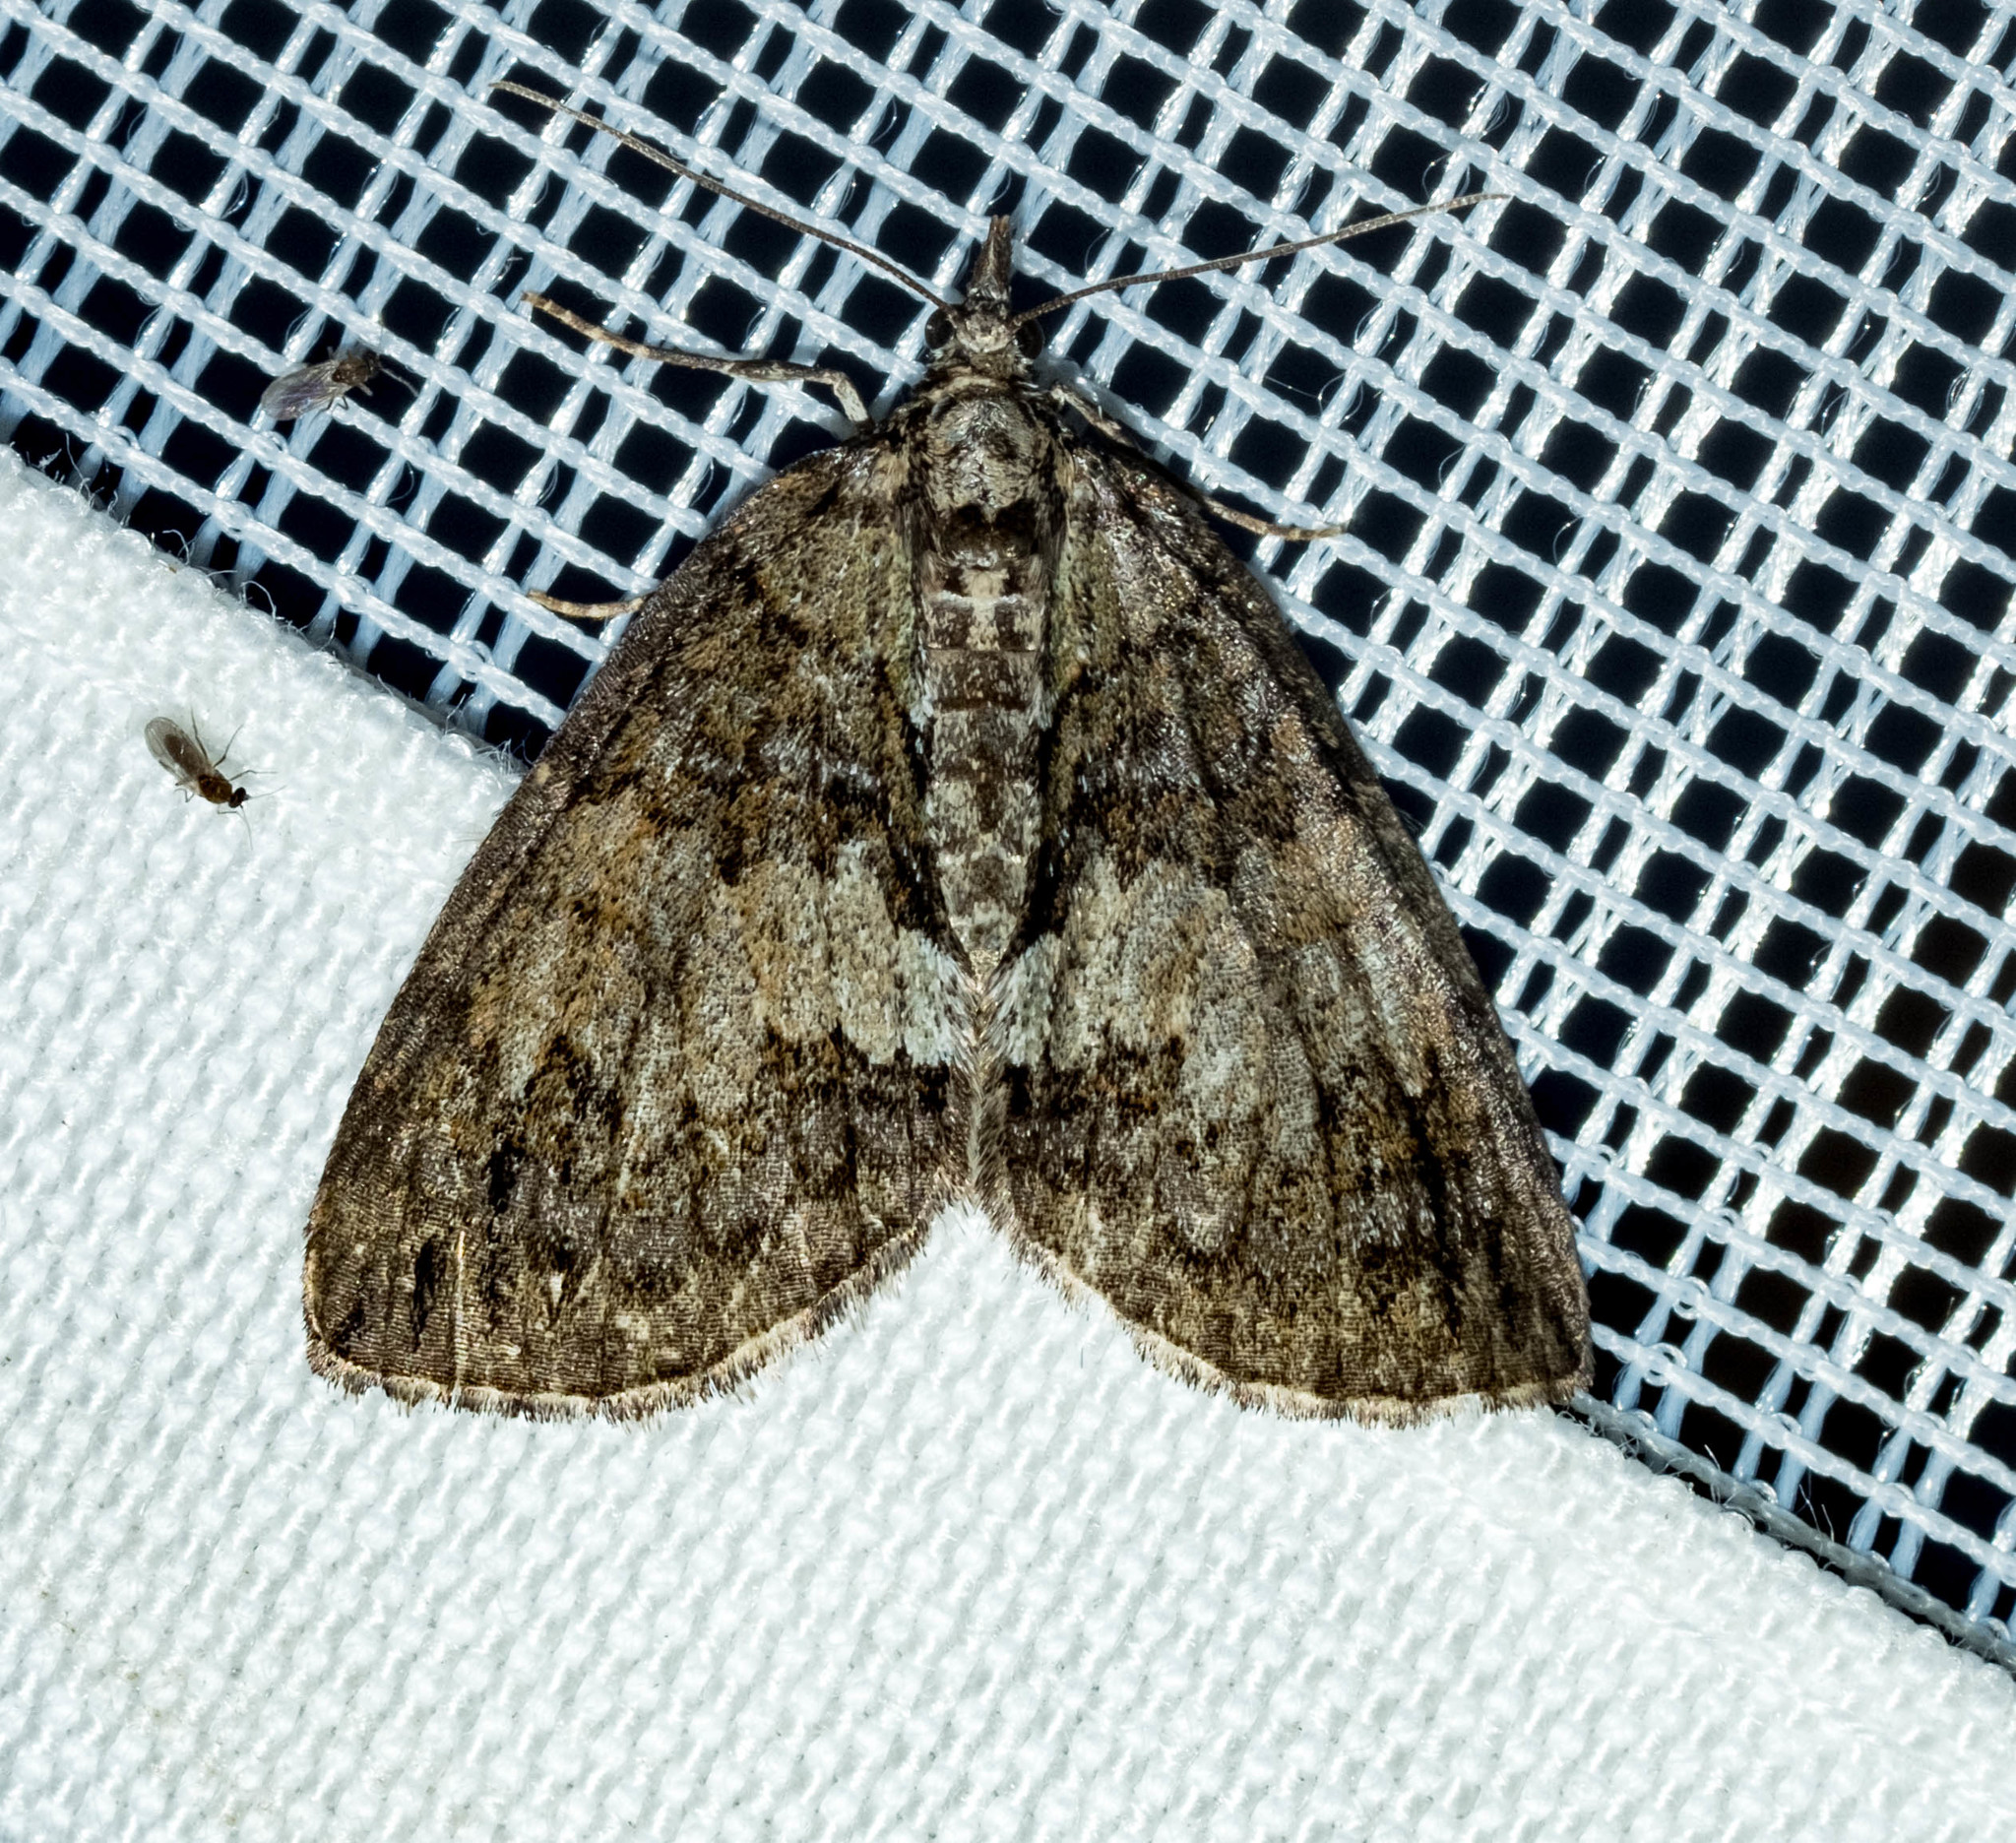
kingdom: Animalia
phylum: Arthropoda
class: Insecta
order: Lepidoptera
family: Geometridae
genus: Hydriomena
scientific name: Hydriomena impluviata
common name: May highflyer
